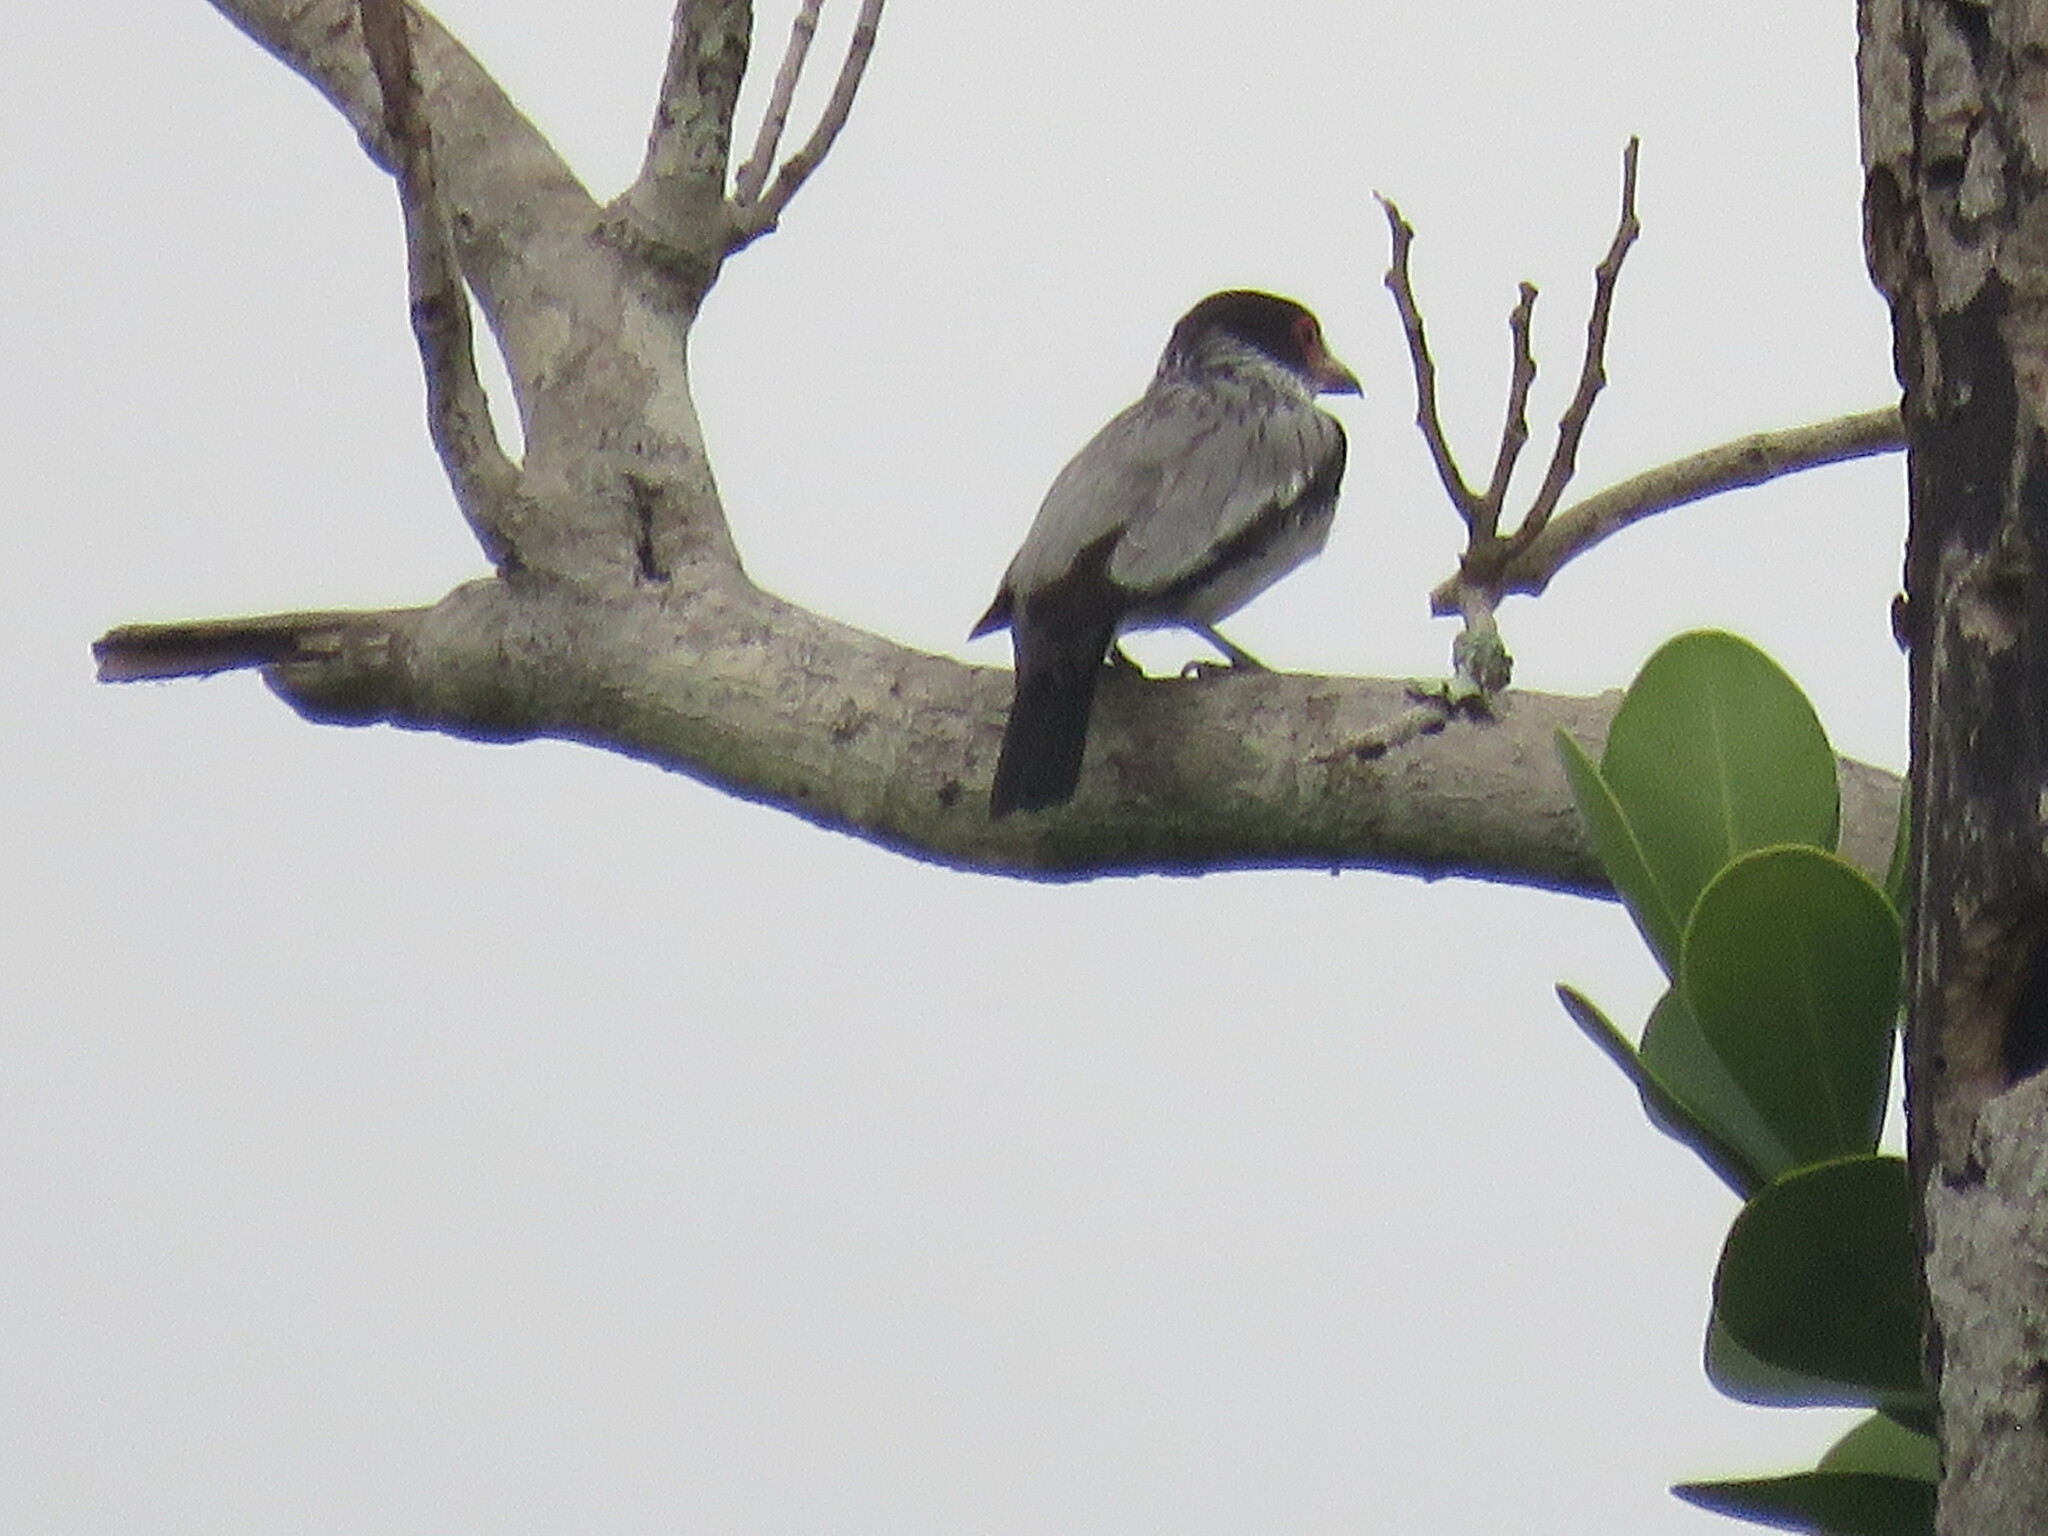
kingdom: Animalia
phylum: Chordata
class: Aves
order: Passeriformes
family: Cotingidae
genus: Tityra
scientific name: Tityra cayana
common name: Black-tailed tityra
